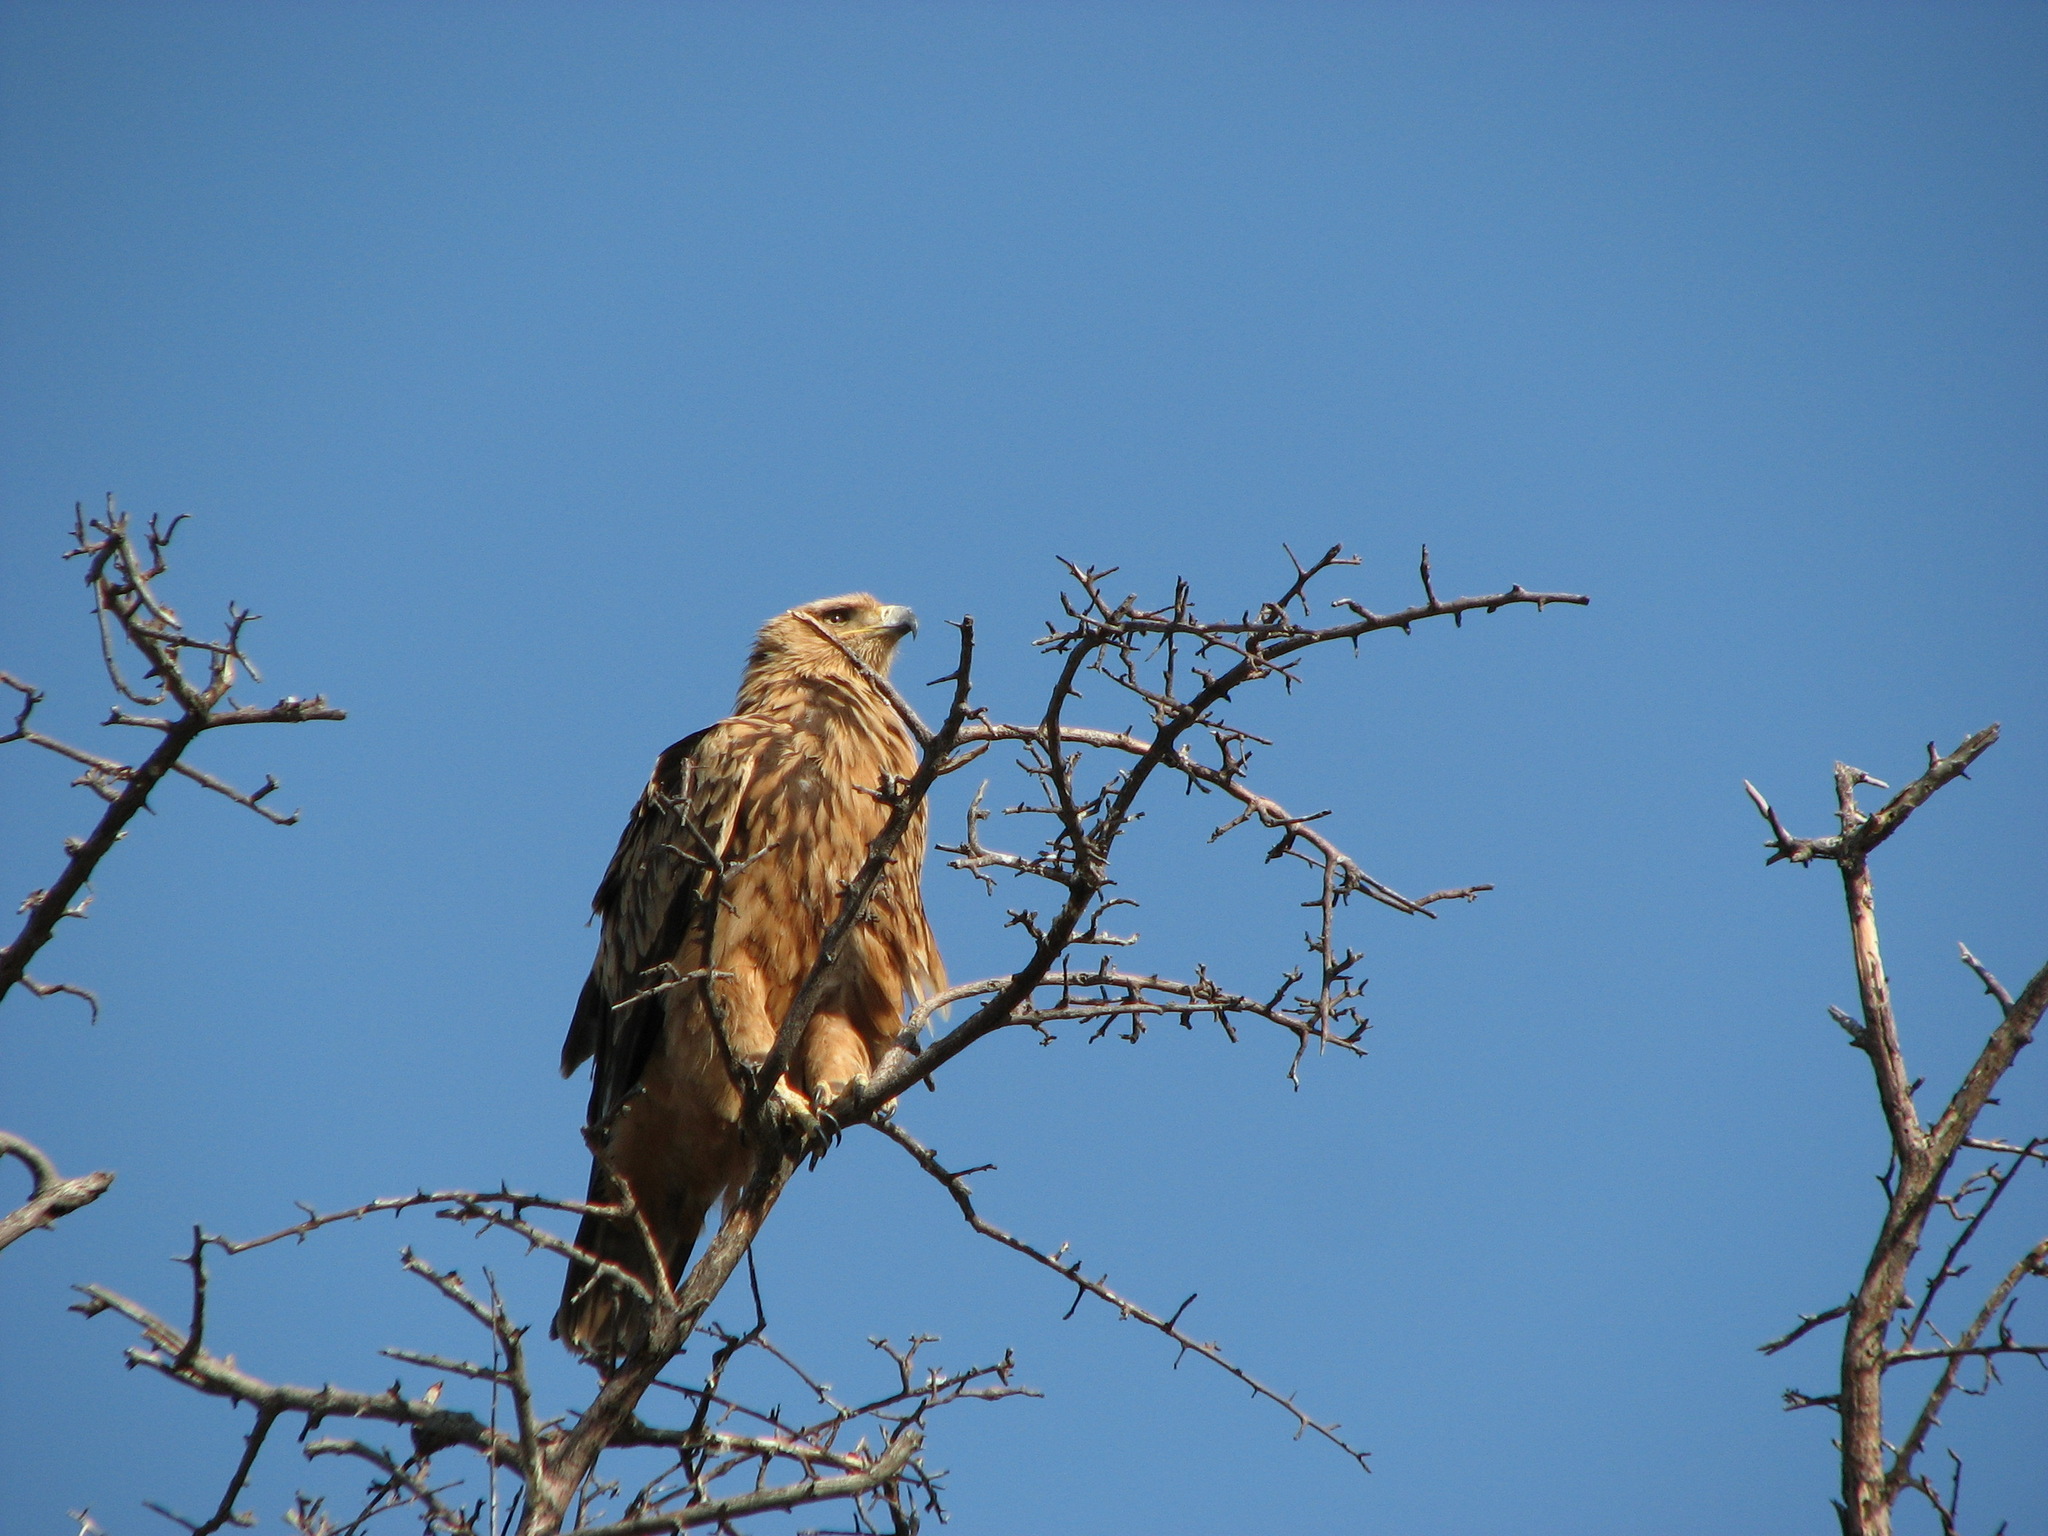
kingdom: Animalia
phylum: Chordata
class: Aves
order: Accipitriformes
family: Accipitridae
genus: Aquila
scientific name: Aquila rapax
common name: Tawny eagle
